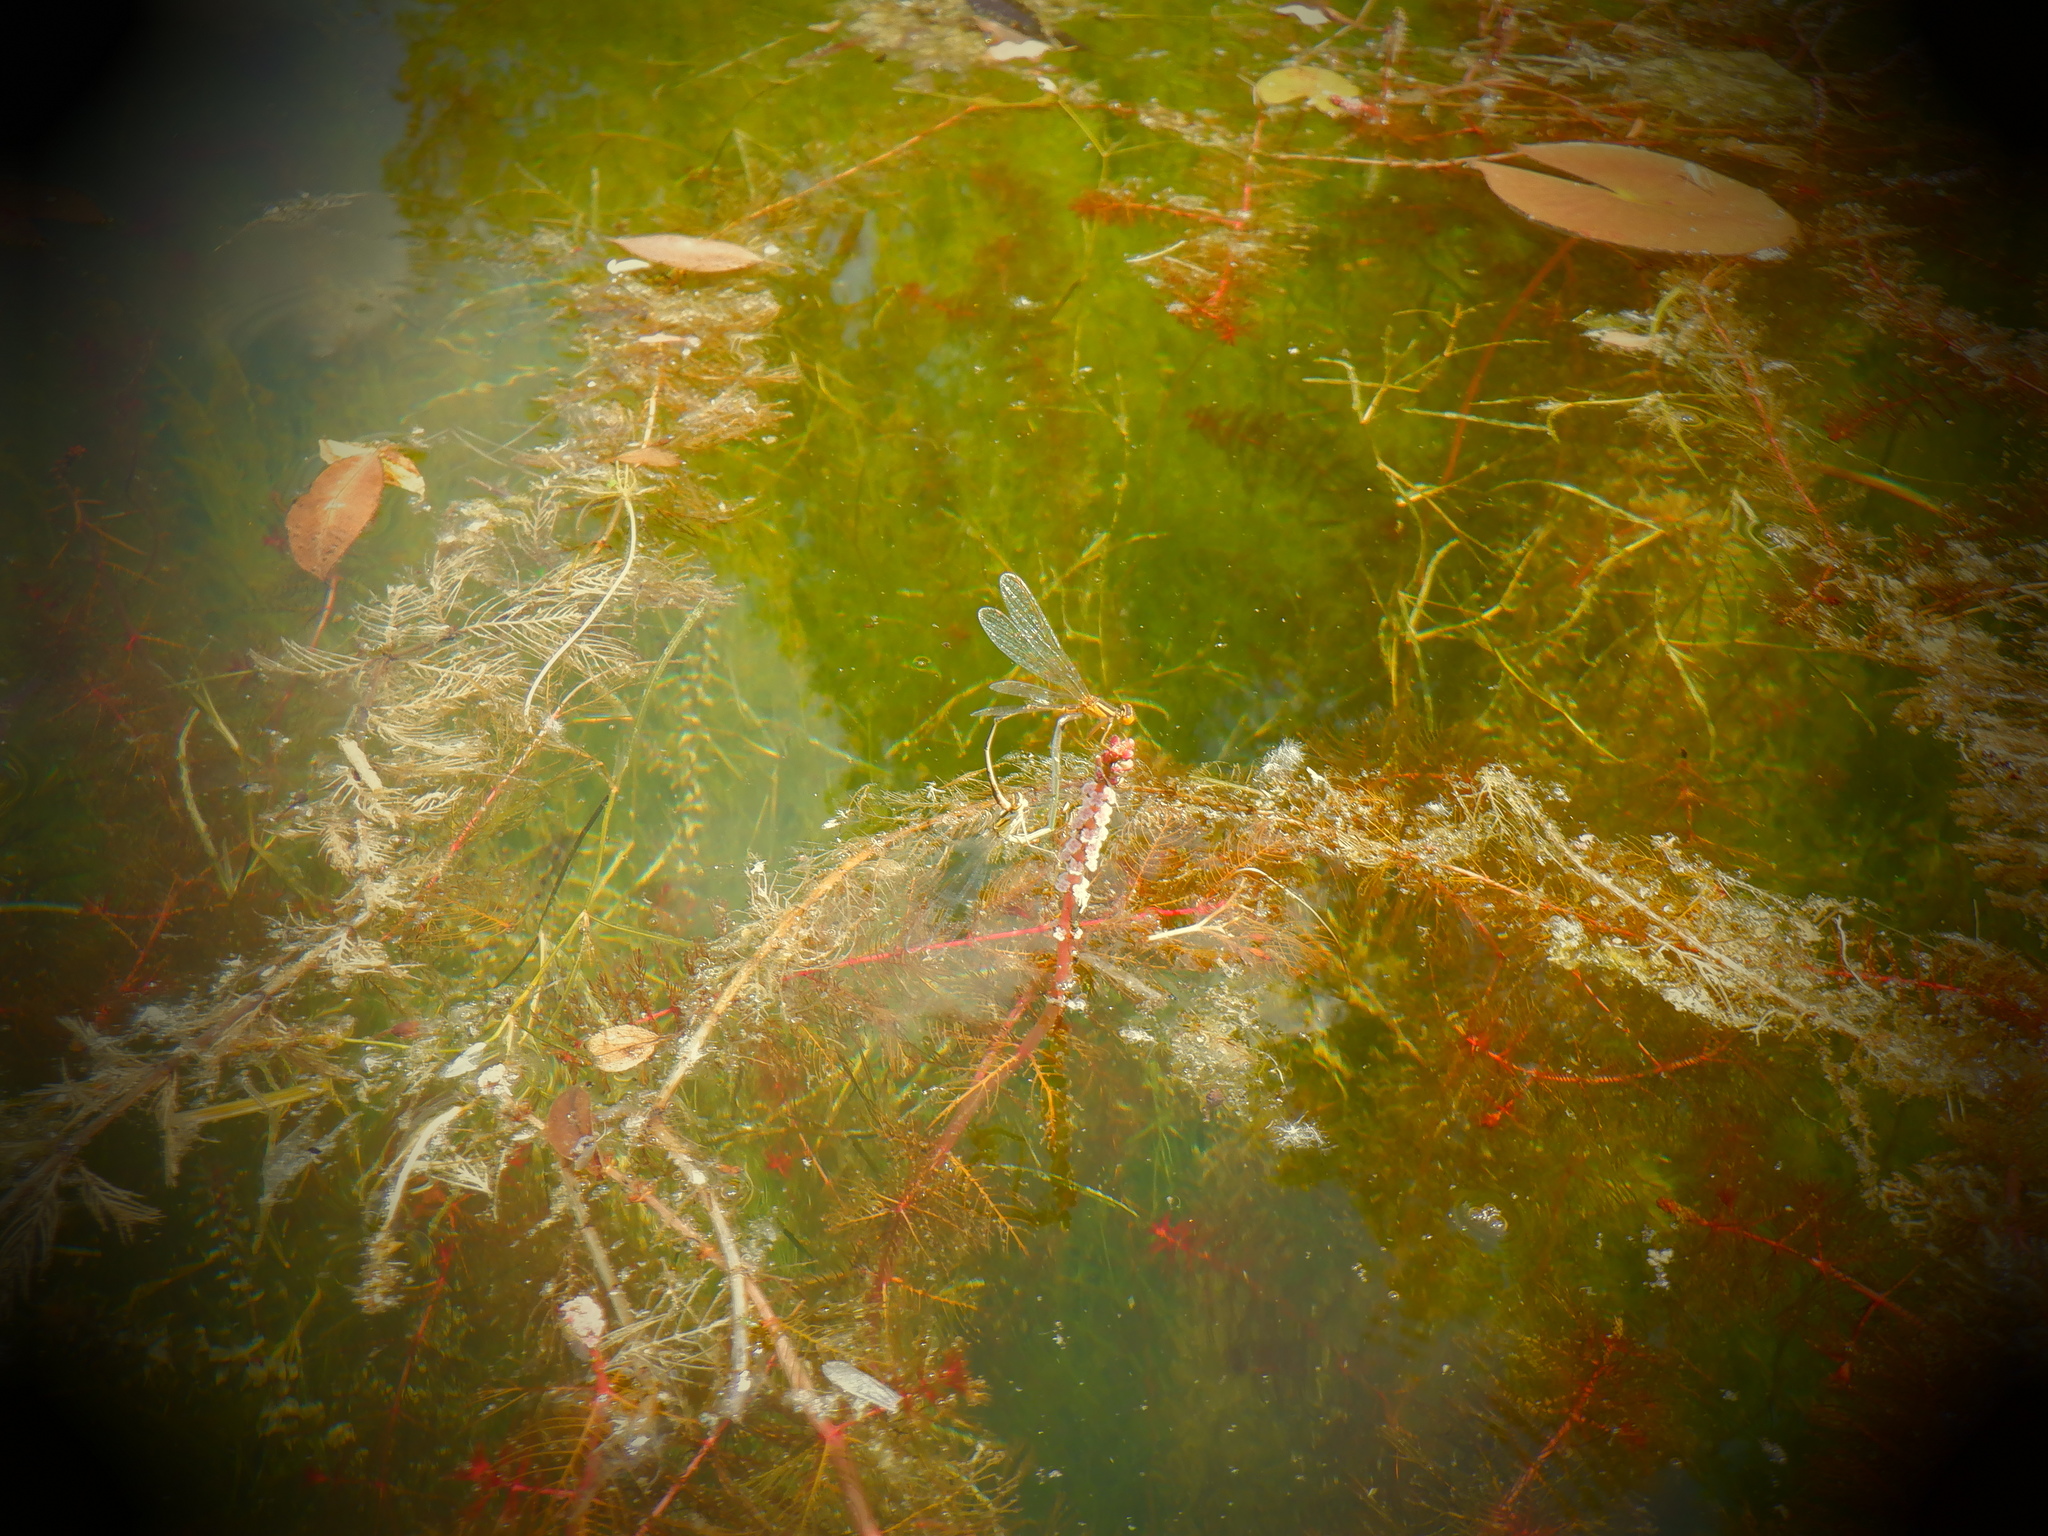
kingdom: Animalia
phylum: Arthropoda
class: Insecta
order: Odonata
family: Coenagrionidae
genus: Enallagma
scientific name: Enallagma signatum
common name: Orange bluet
